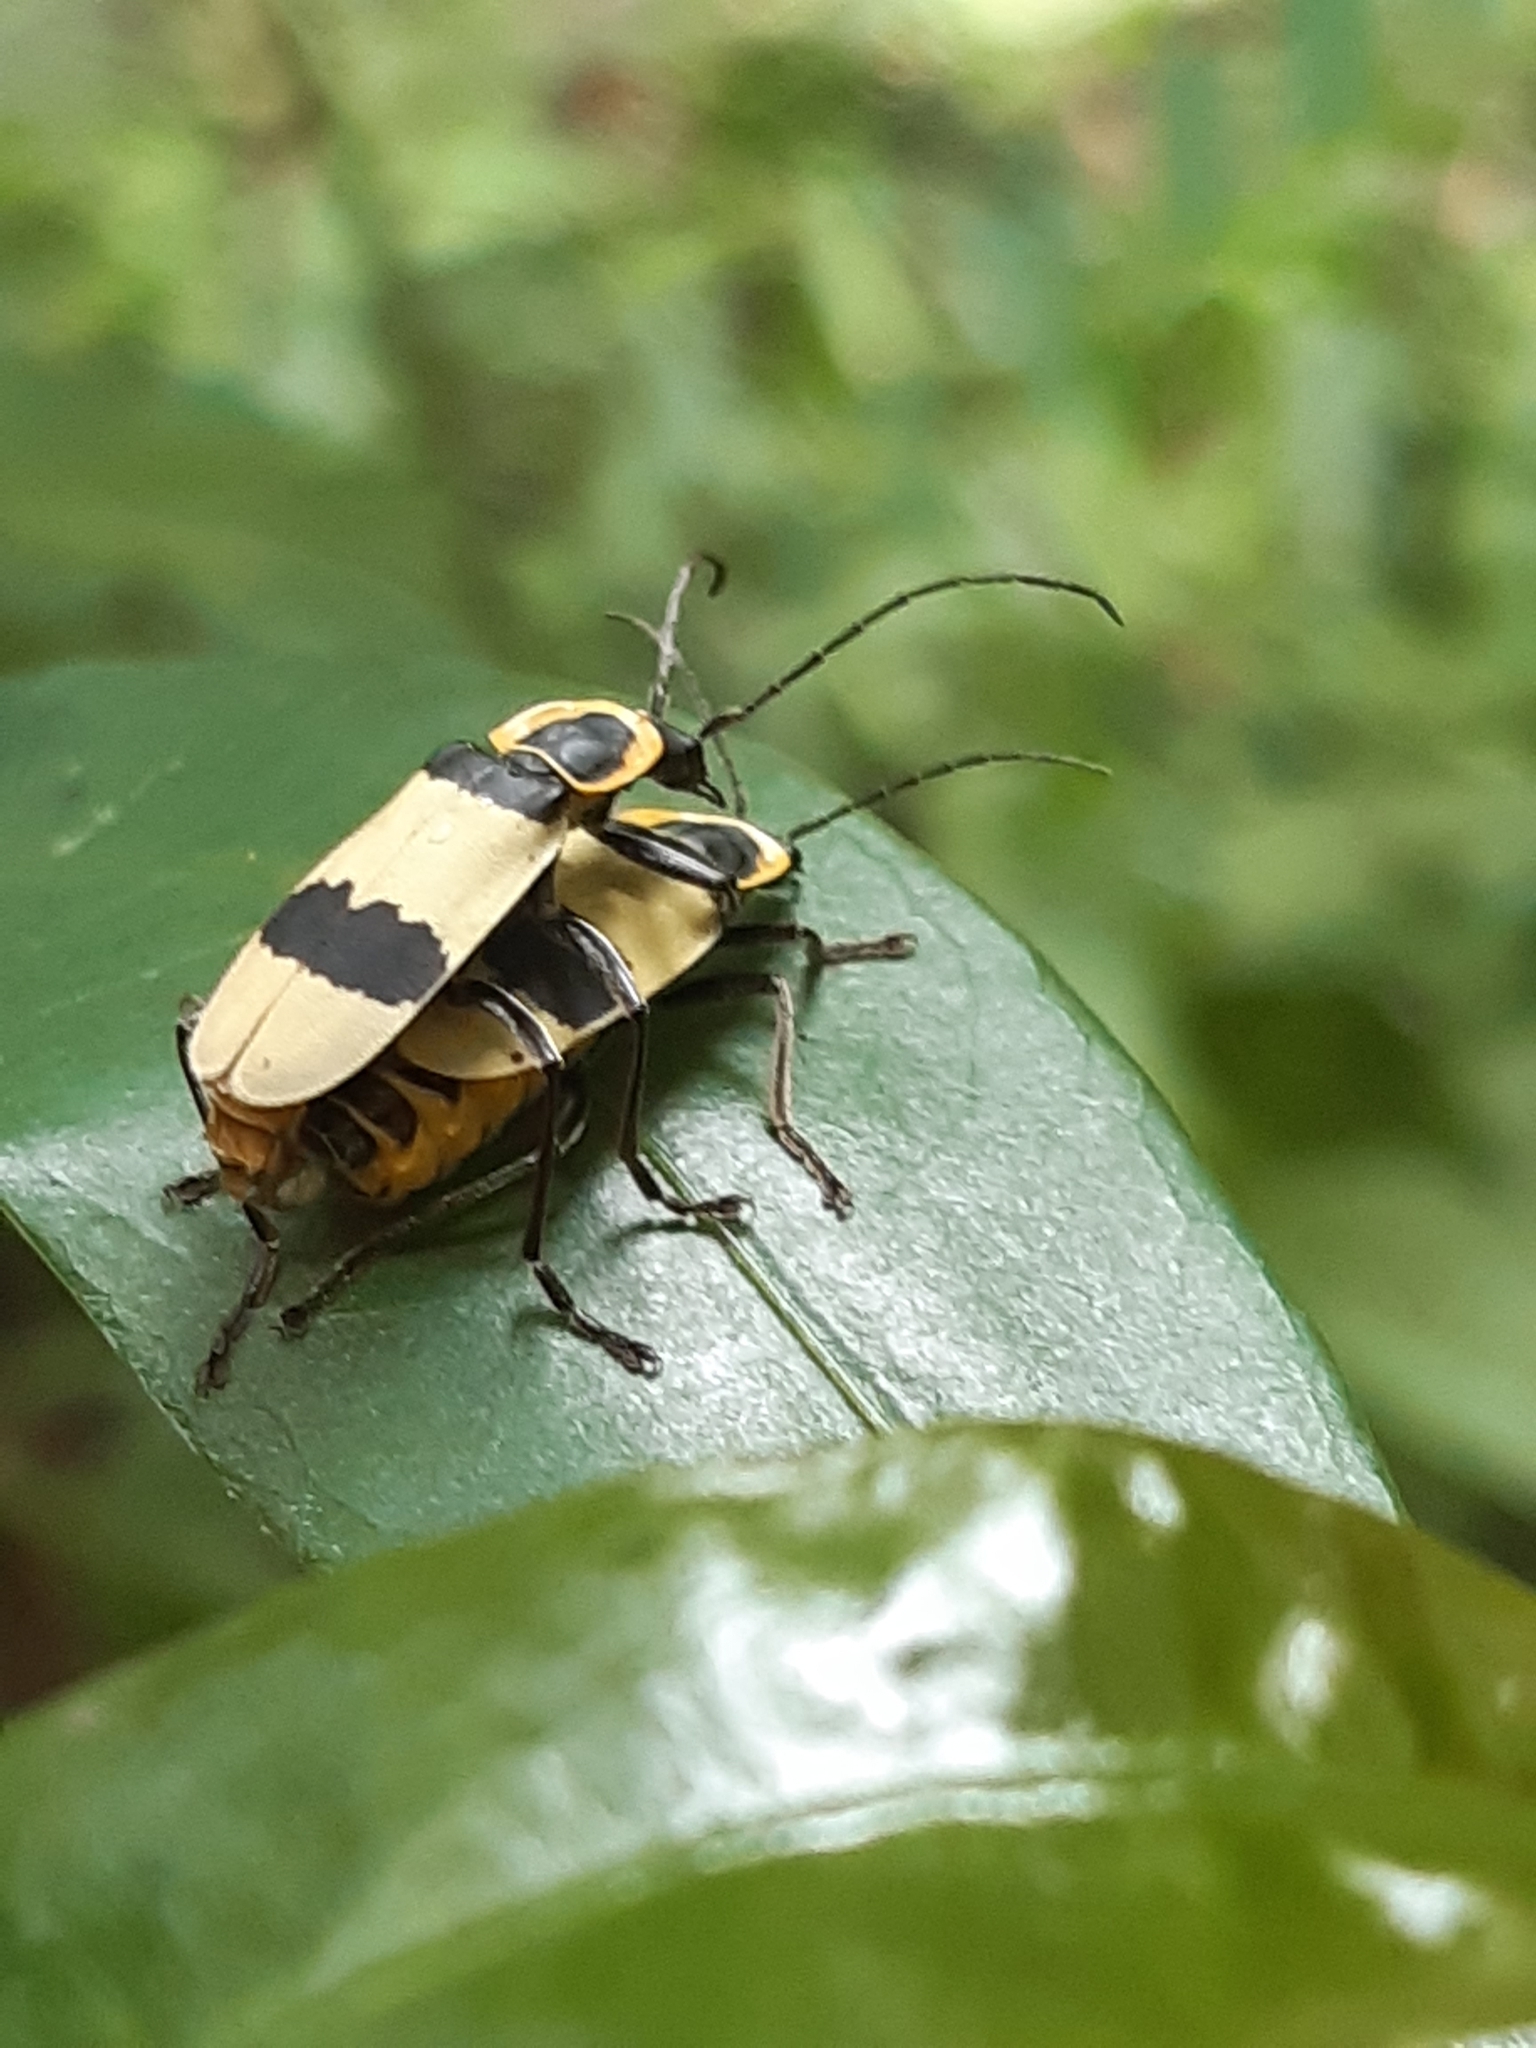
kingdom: Animalia
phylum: Arthropoda
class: Insecta
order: Coleoptera
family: Cantharidae
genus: Chauliognathus
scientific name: Chauliognathus
